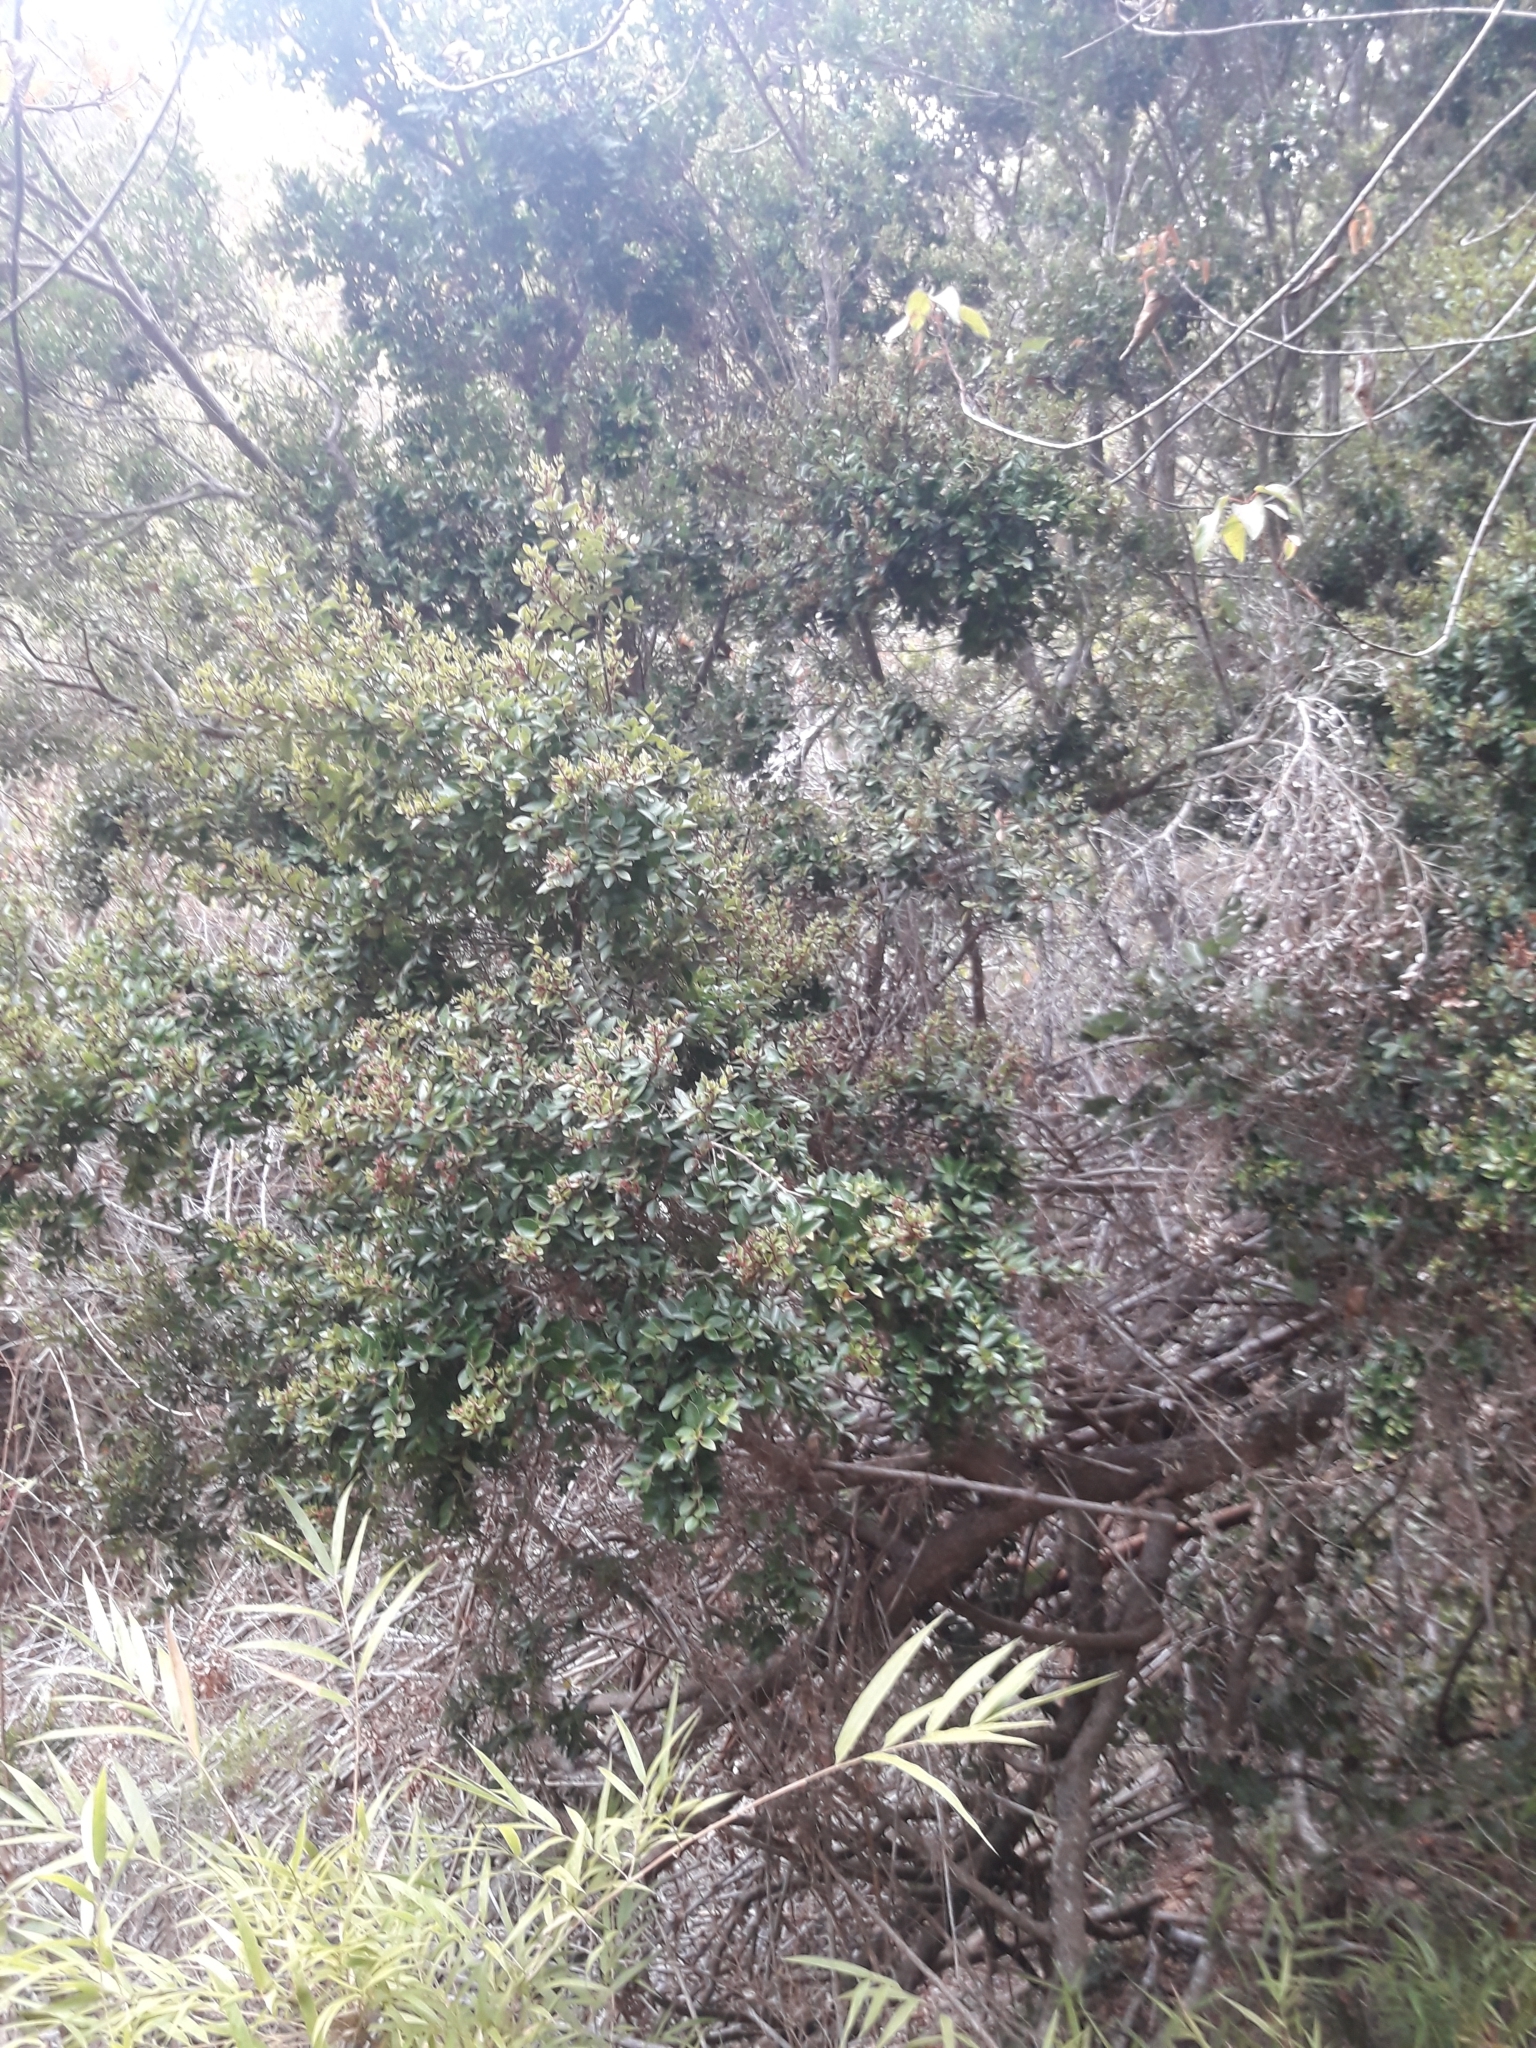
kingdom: Plantae
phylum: Tracheophyta
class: Magnoliopsida
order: Myrtales
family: Myrtaceae
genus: Myrceugenia
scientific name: Myrceugenia obtusa
